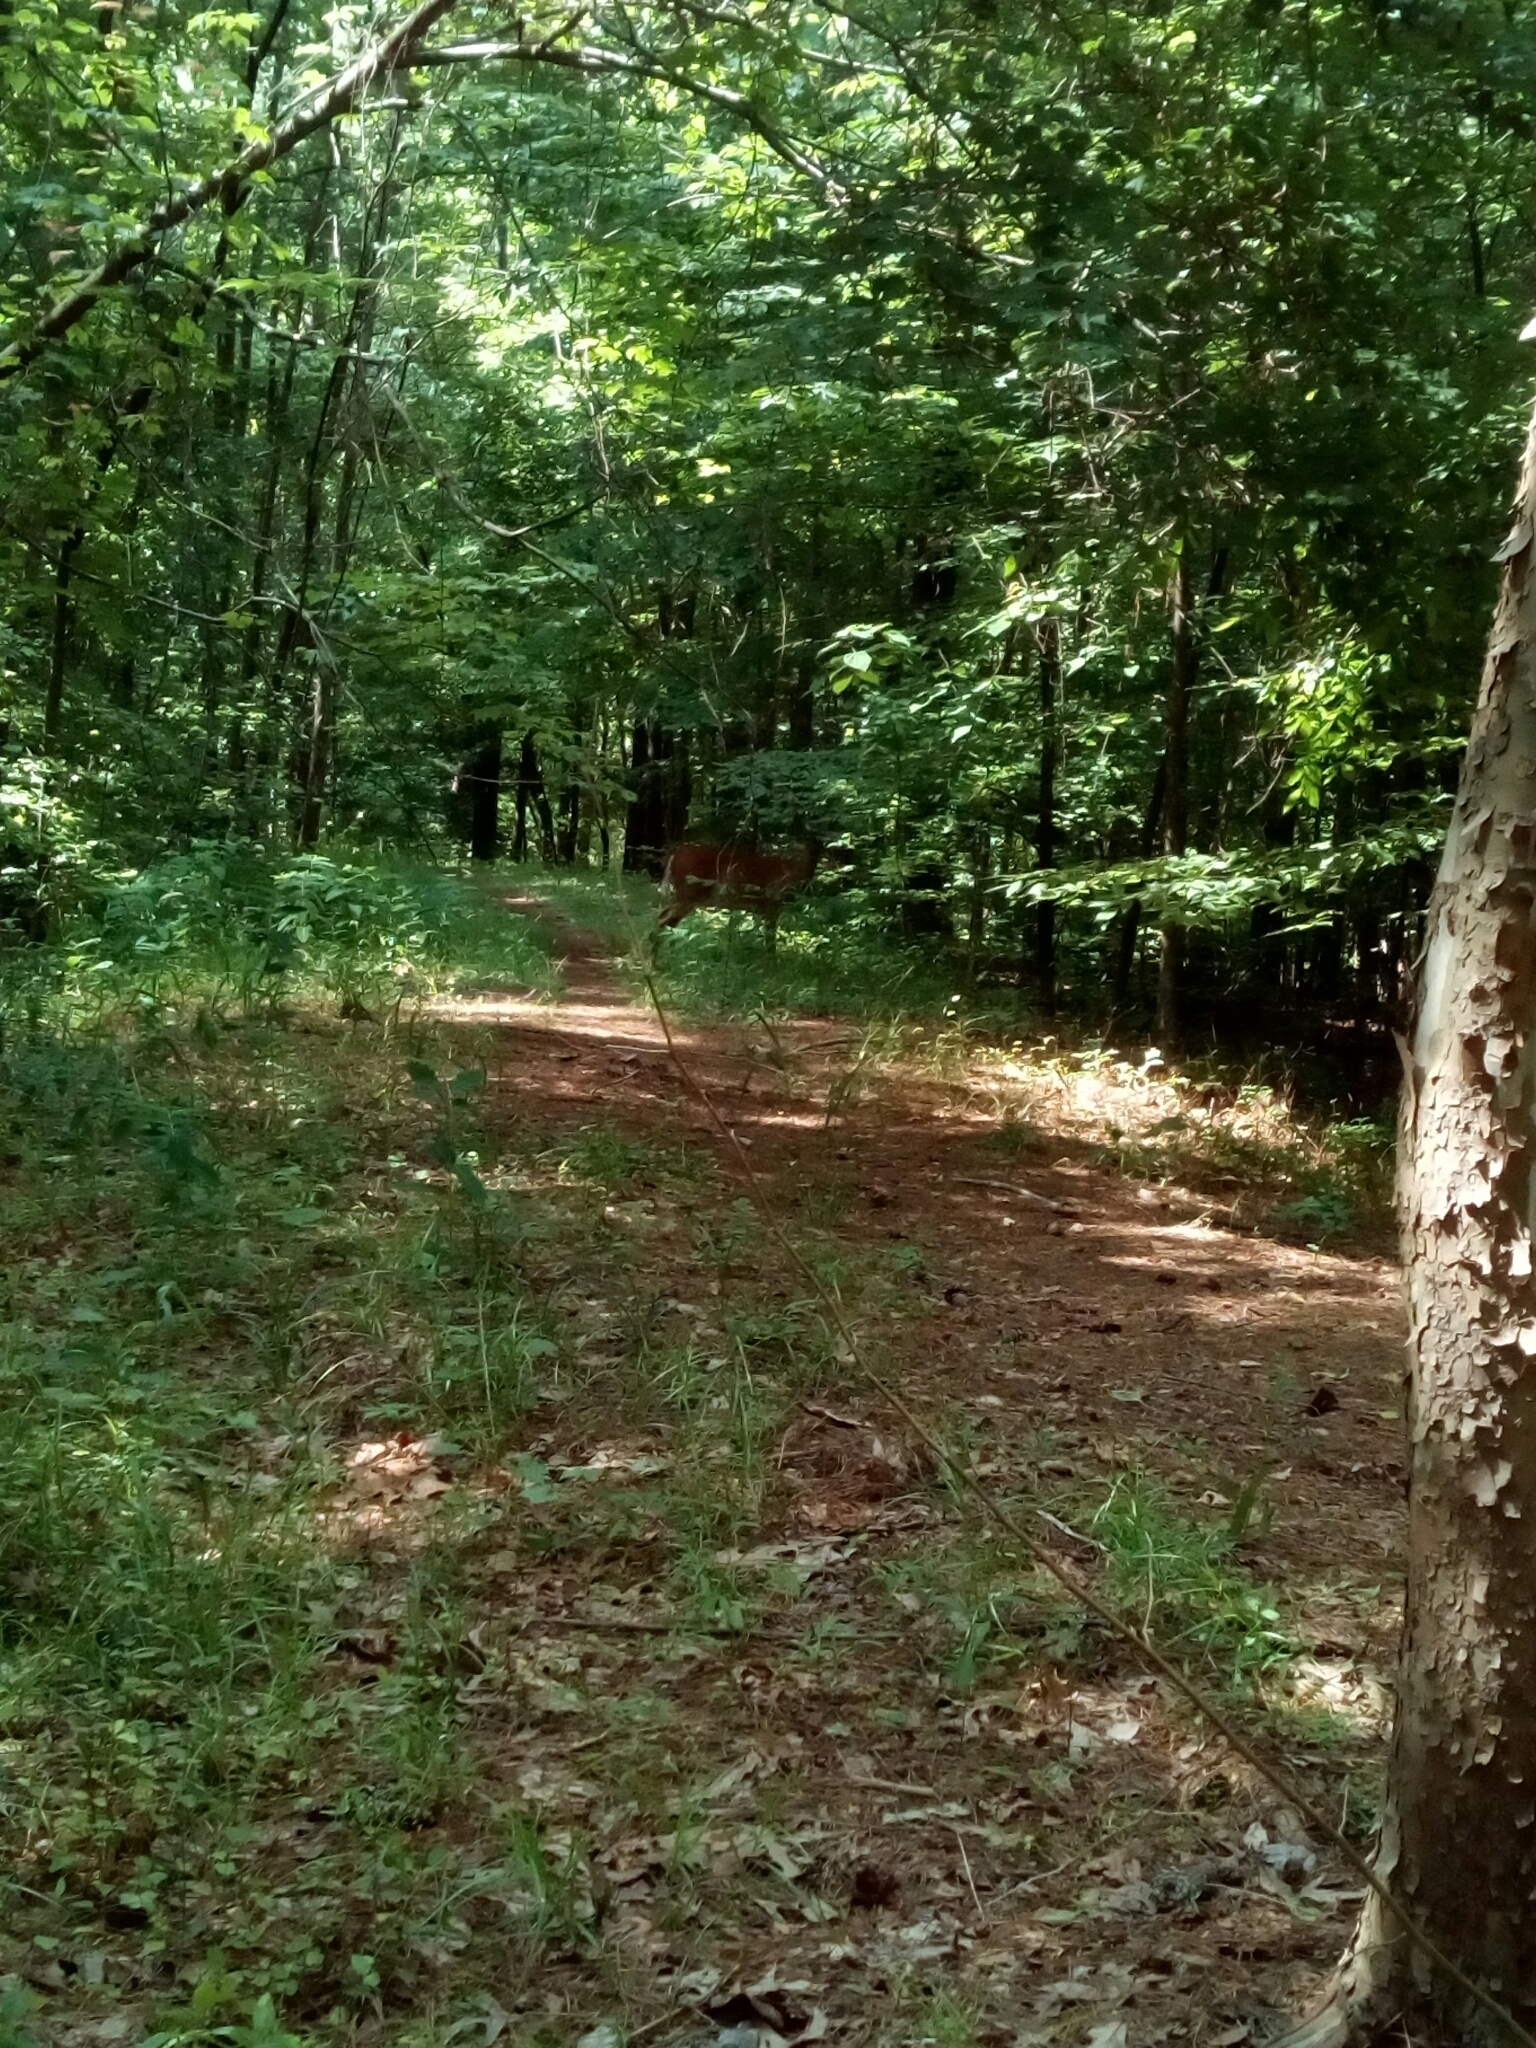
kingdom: Animalia
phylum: Chordata
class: Mammalia
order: Artiodactyla
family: Cervidae
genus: Odocoileus
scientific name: Odocoileus virginianus
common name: White-tailed deer
